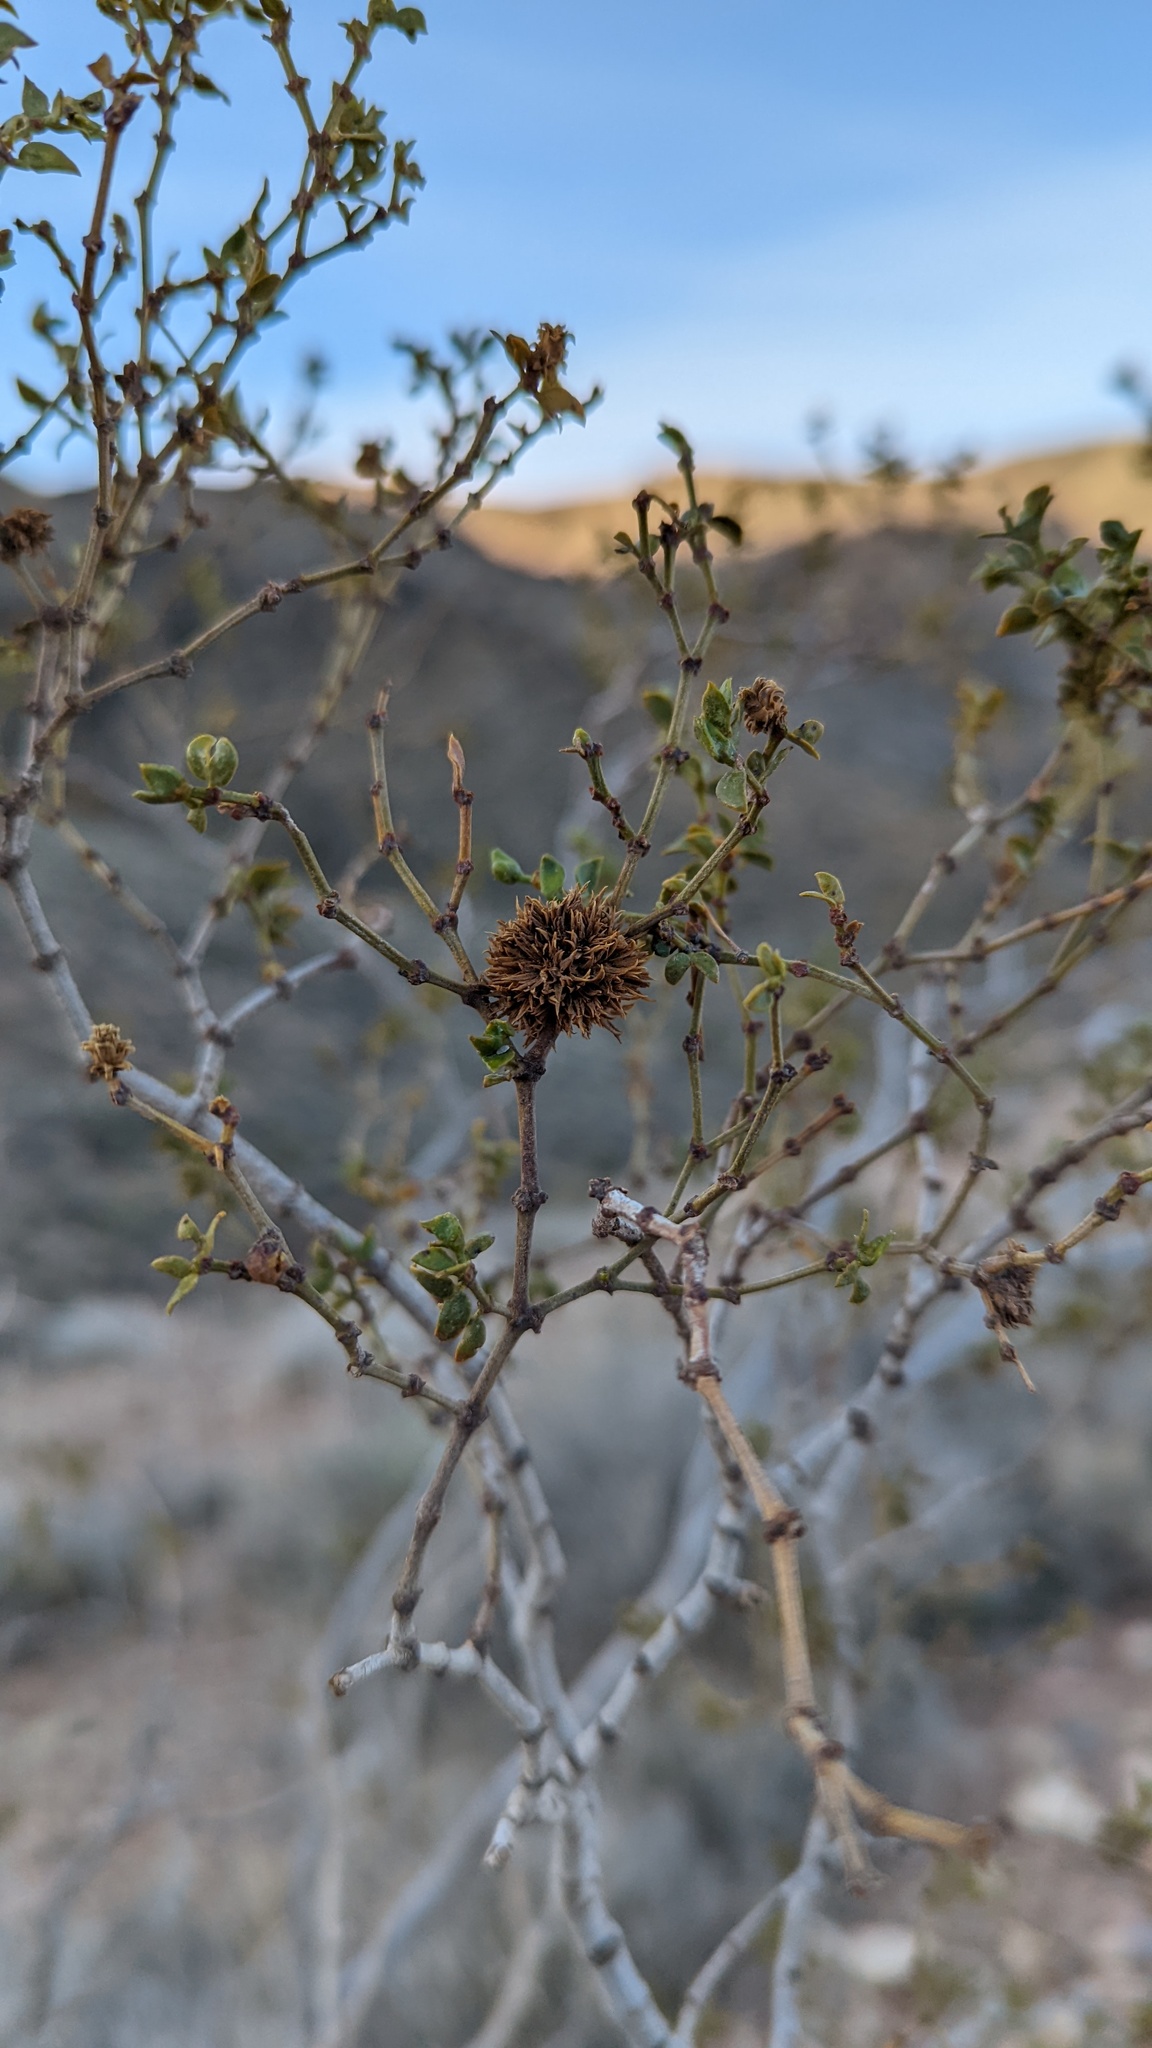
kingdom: Animalia
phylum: Arthropoda
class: Insecta
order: Diptera
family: Cecidomyiidae
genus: Asphondylia
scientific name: Asphondylia auripila
